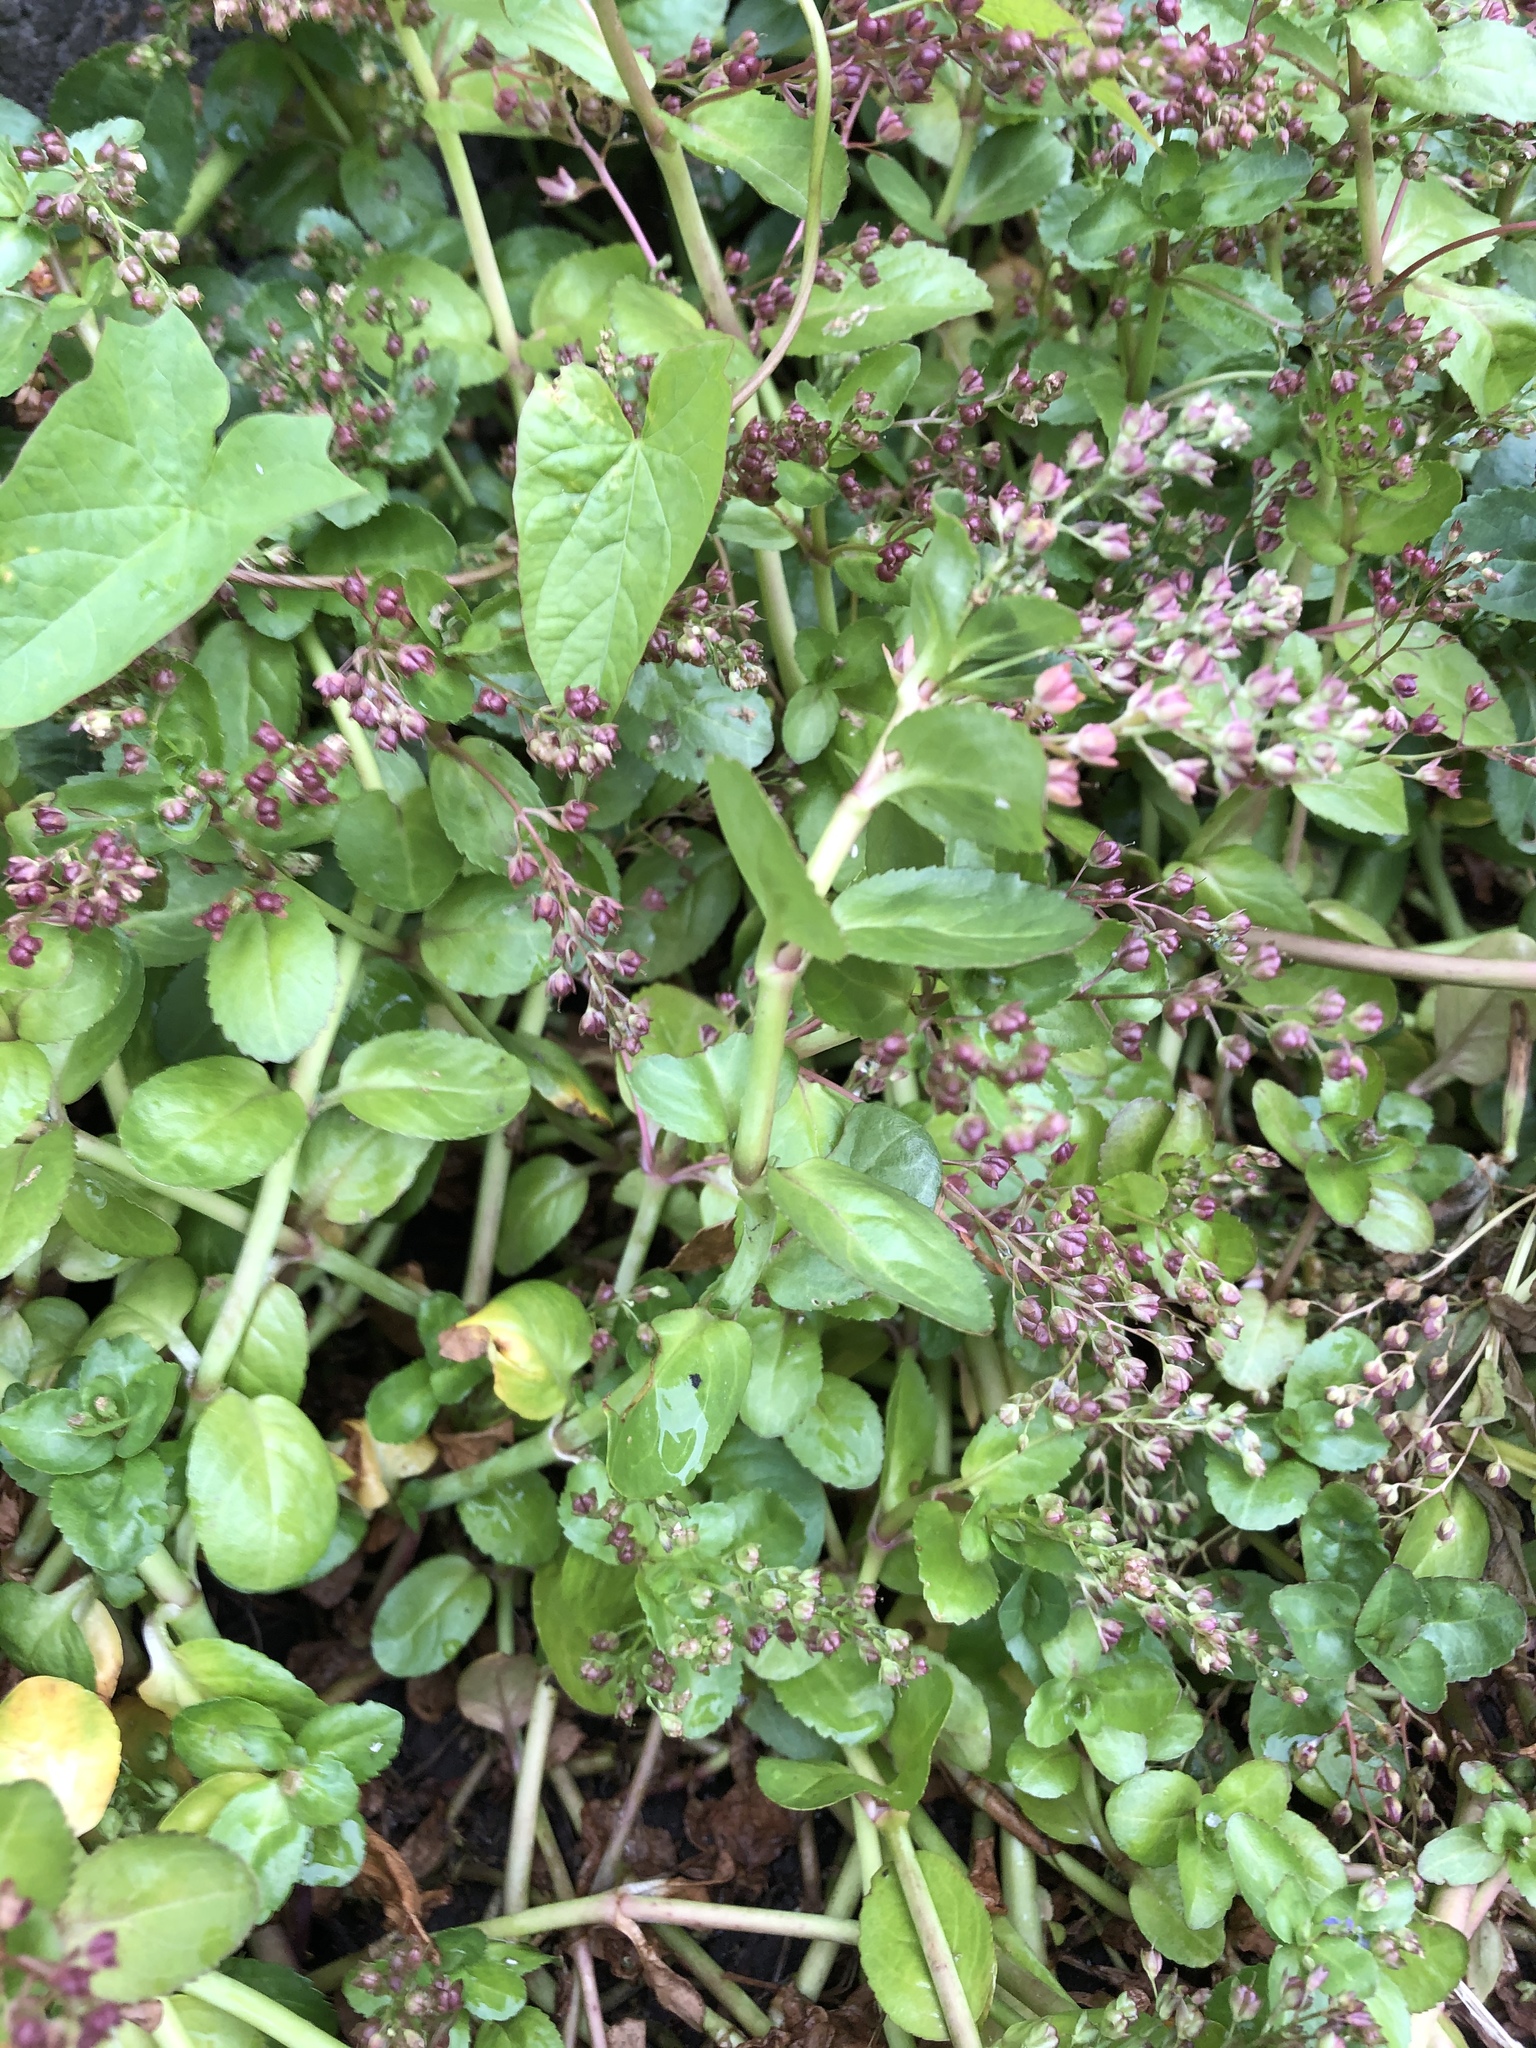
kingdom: Plantae
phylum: Tracheophyta
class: Magnoliopsida
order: Lamiales
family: Plantaginaceae
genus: Veronica
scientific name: Veronica beccabunga
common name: Brooklime
